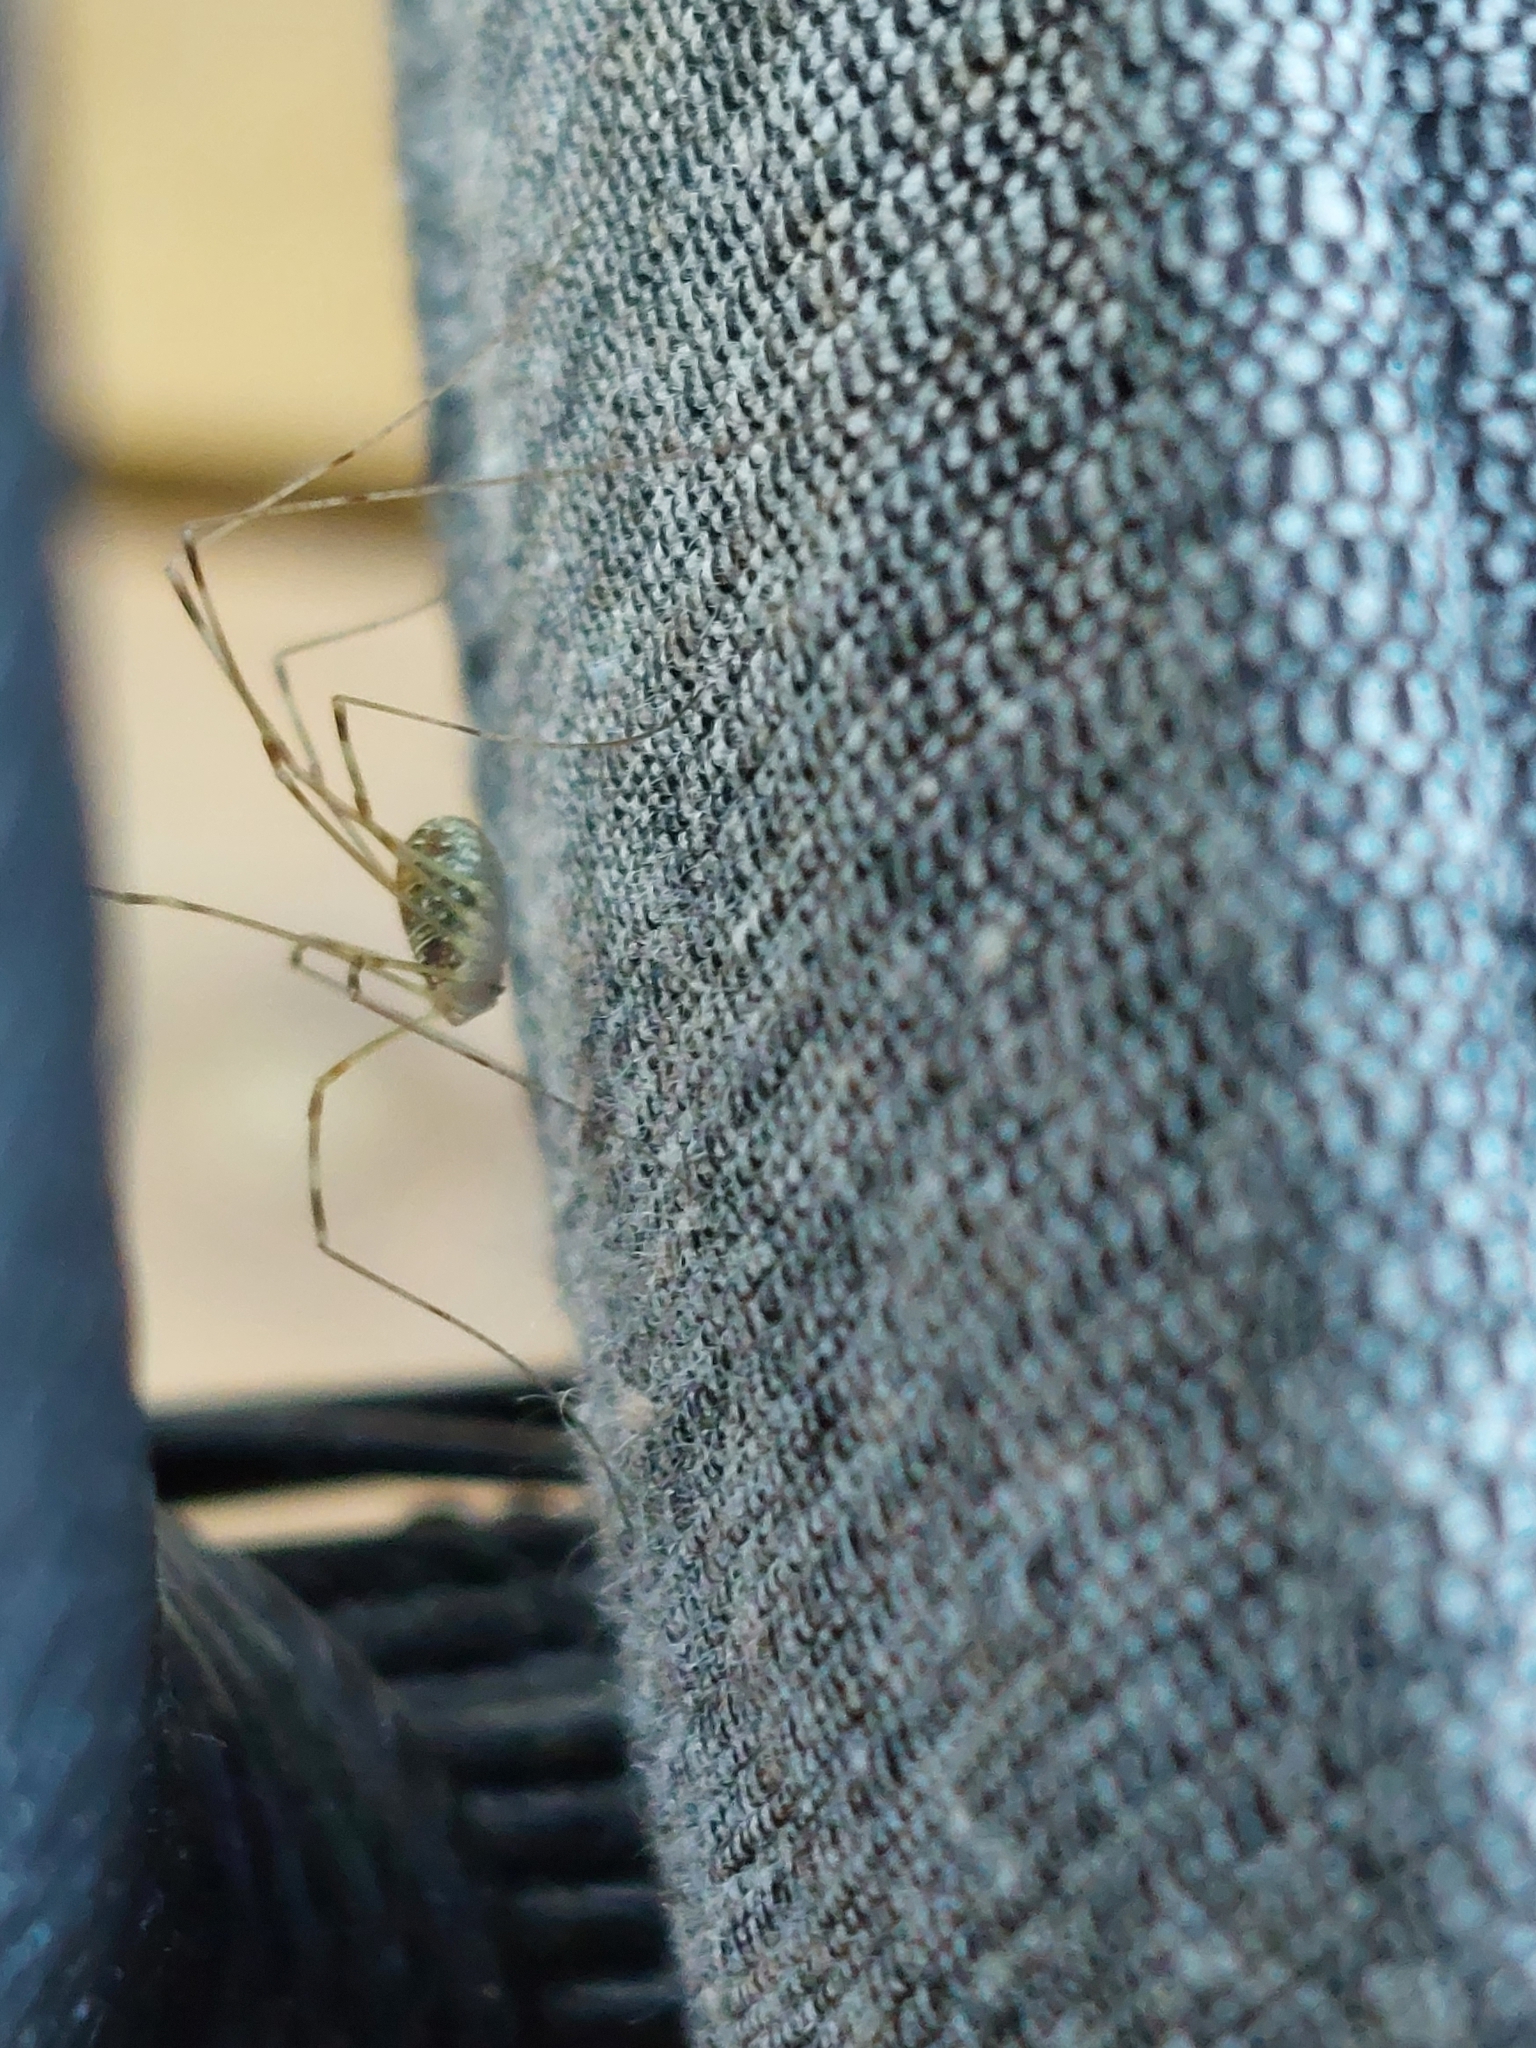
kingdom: Animalia
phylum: Arthropoda
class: Arachnida
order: Opiliones
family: Phalangiidae
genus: Opilio
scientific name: Opilio canestrinii
